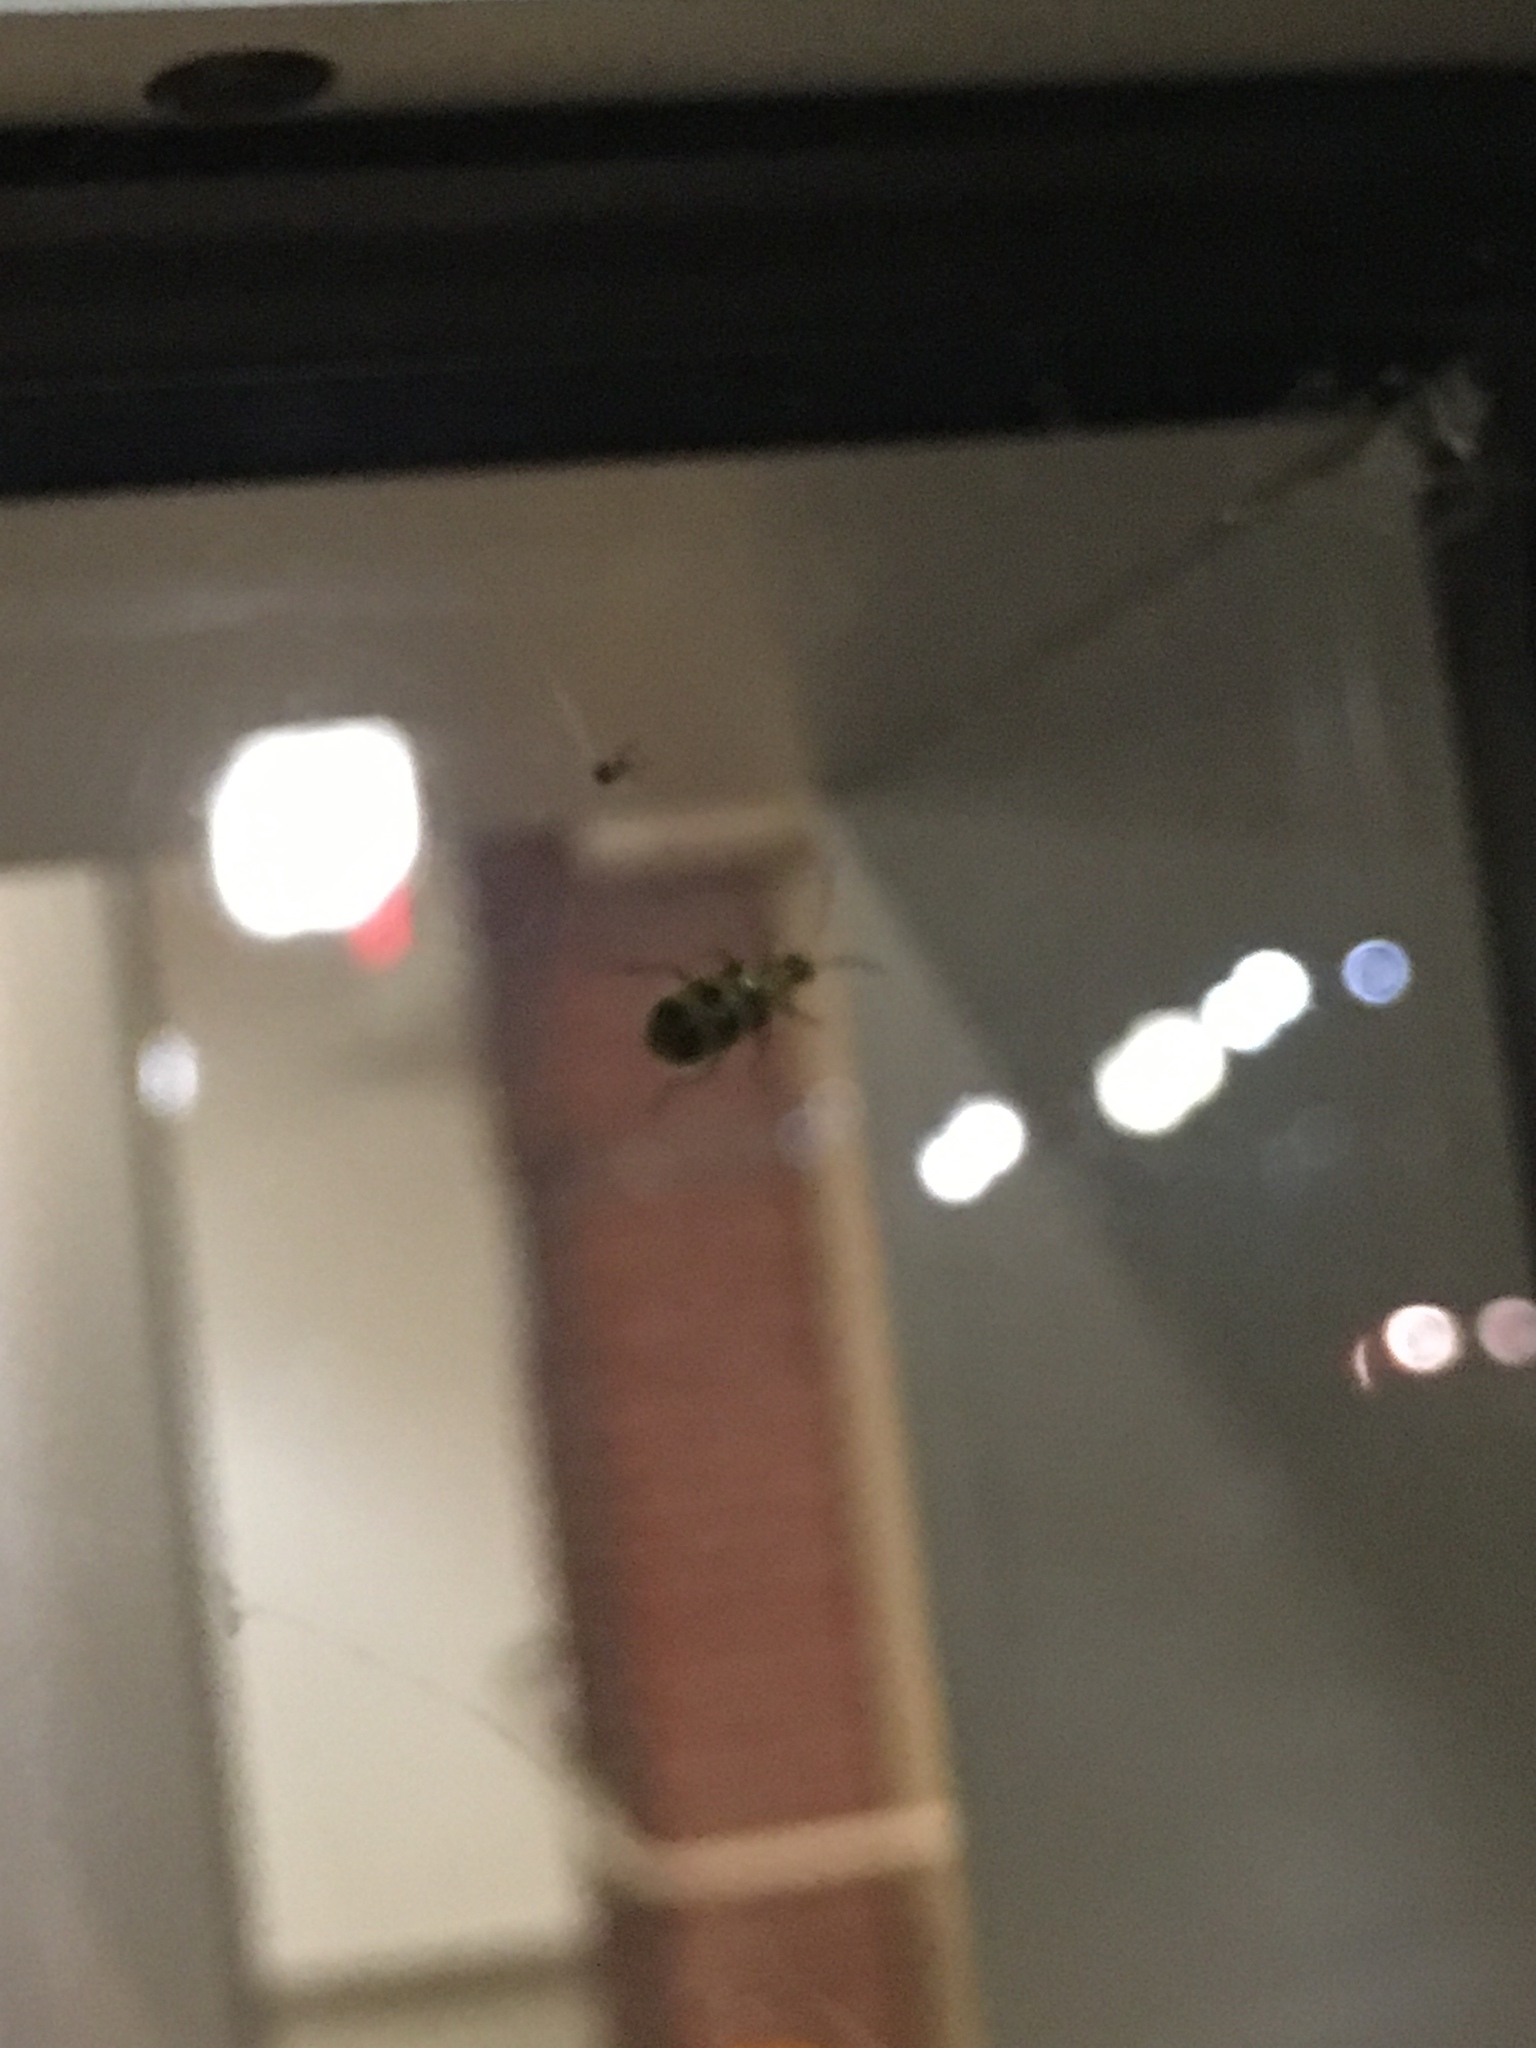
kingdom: Animalia
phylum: Arthropoda
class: Insecta
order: Coleoptera
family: Chrysomelidae
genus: Diabrotica
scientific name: Diabrotica undecimpunctata
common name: Spotted cucumber beetle
